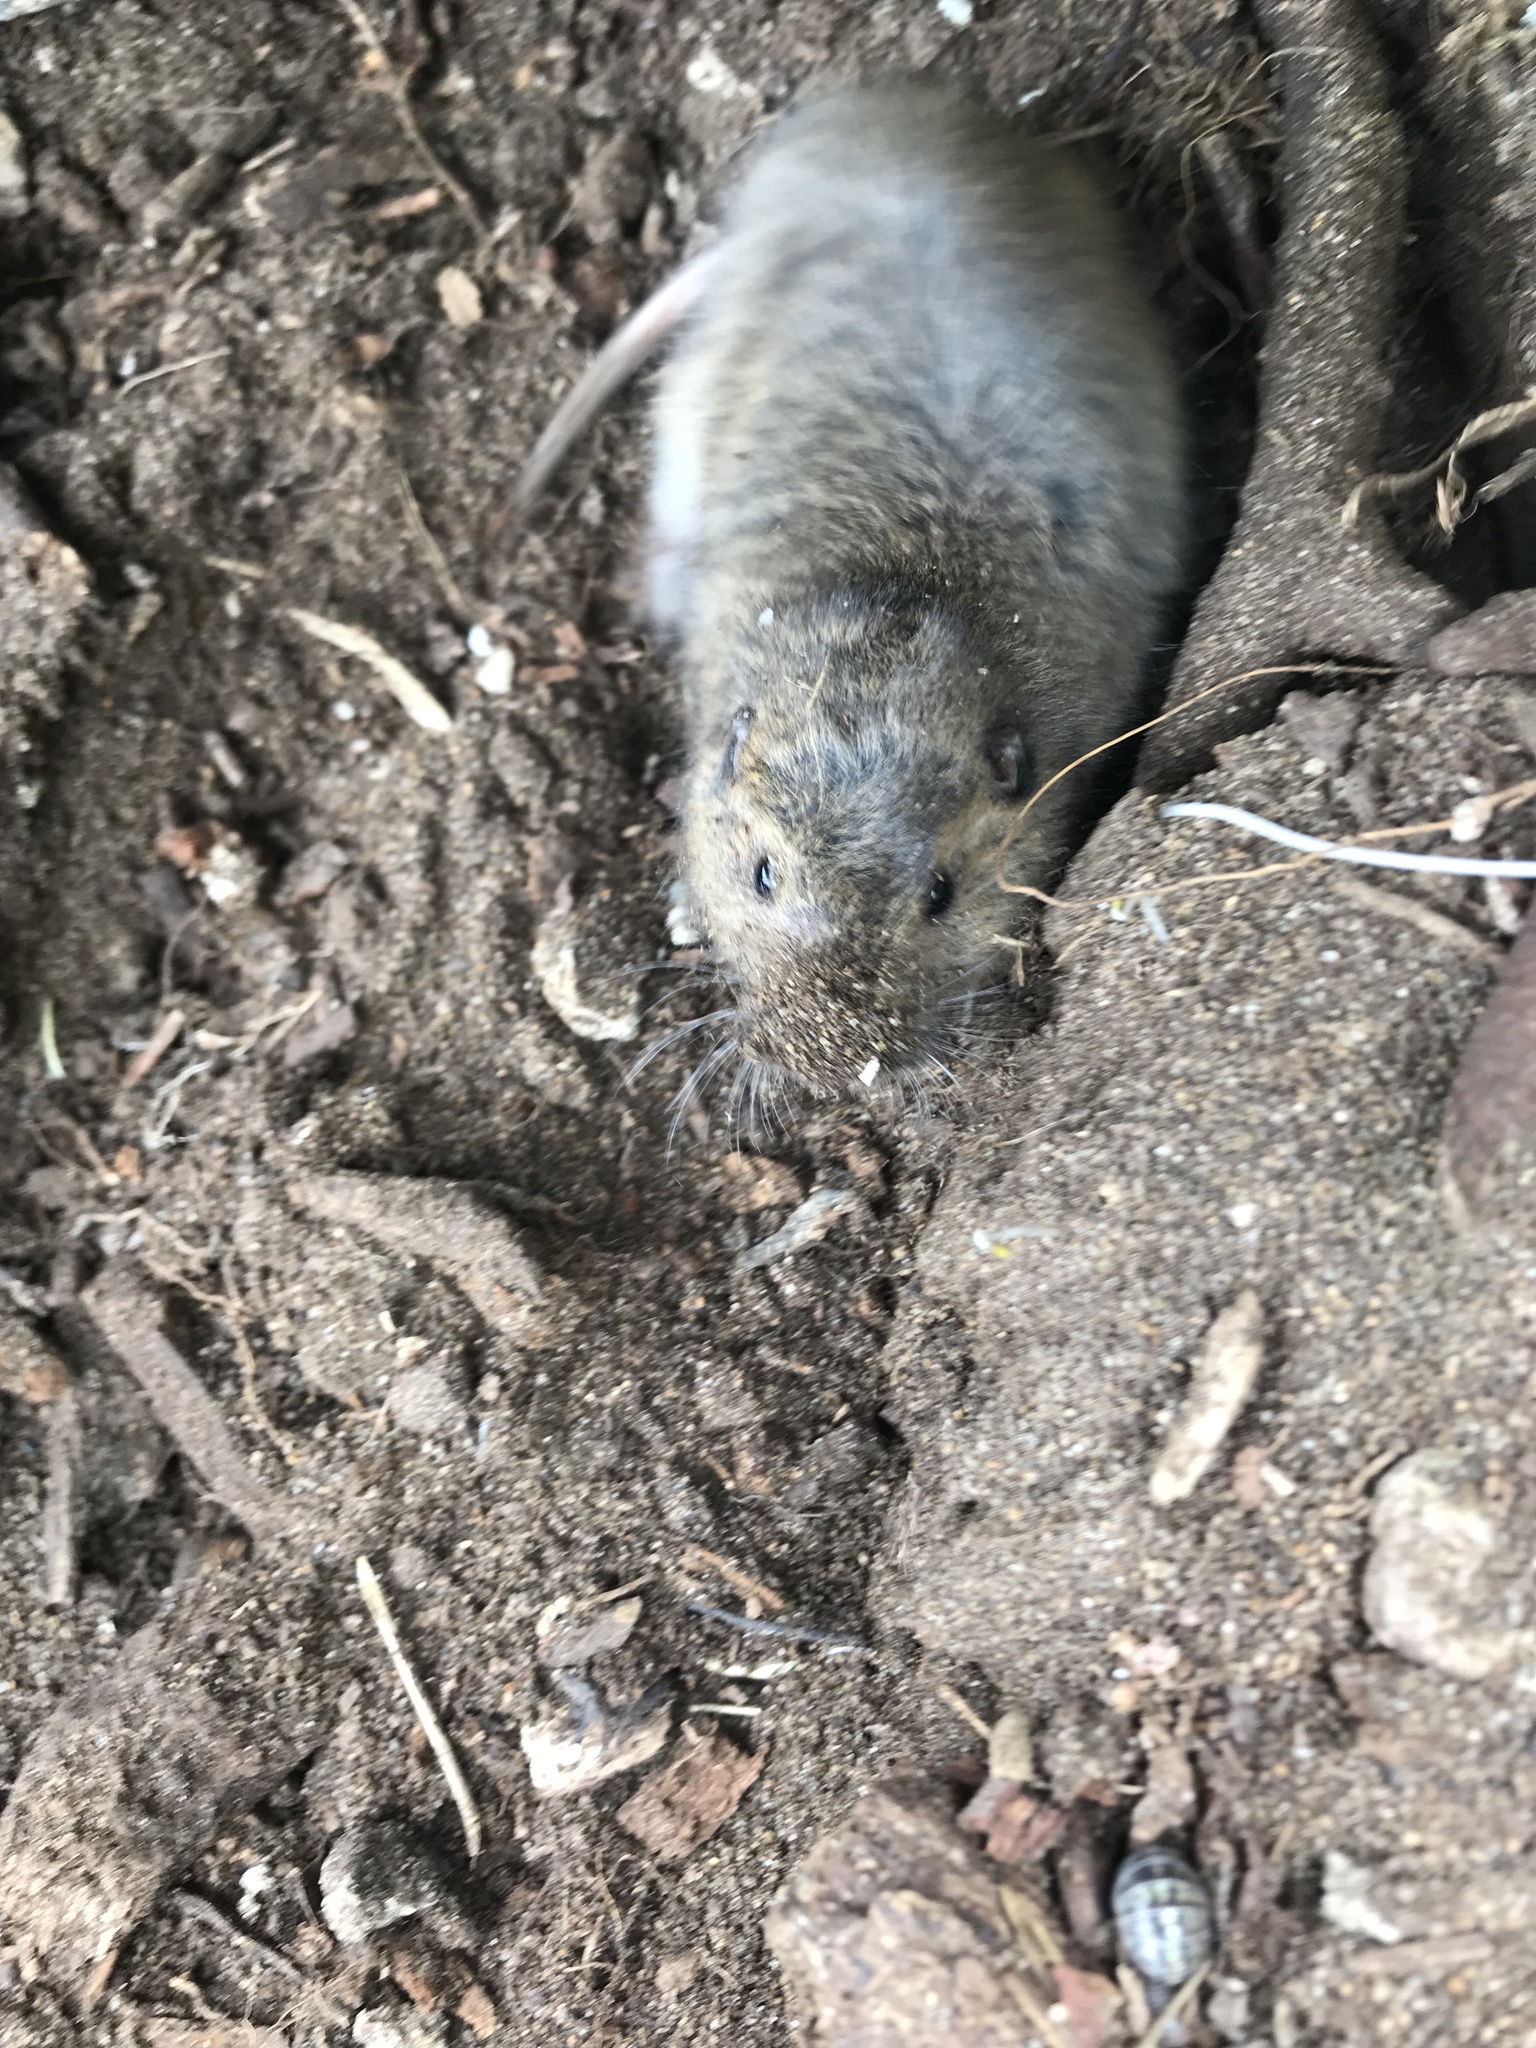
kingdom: Animalia
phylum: Chordata
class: Mammalia
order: Rodentia
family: Geomyidae
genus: Thomomys
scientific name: Thomomys bottae
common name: Botta's pocket gopher
